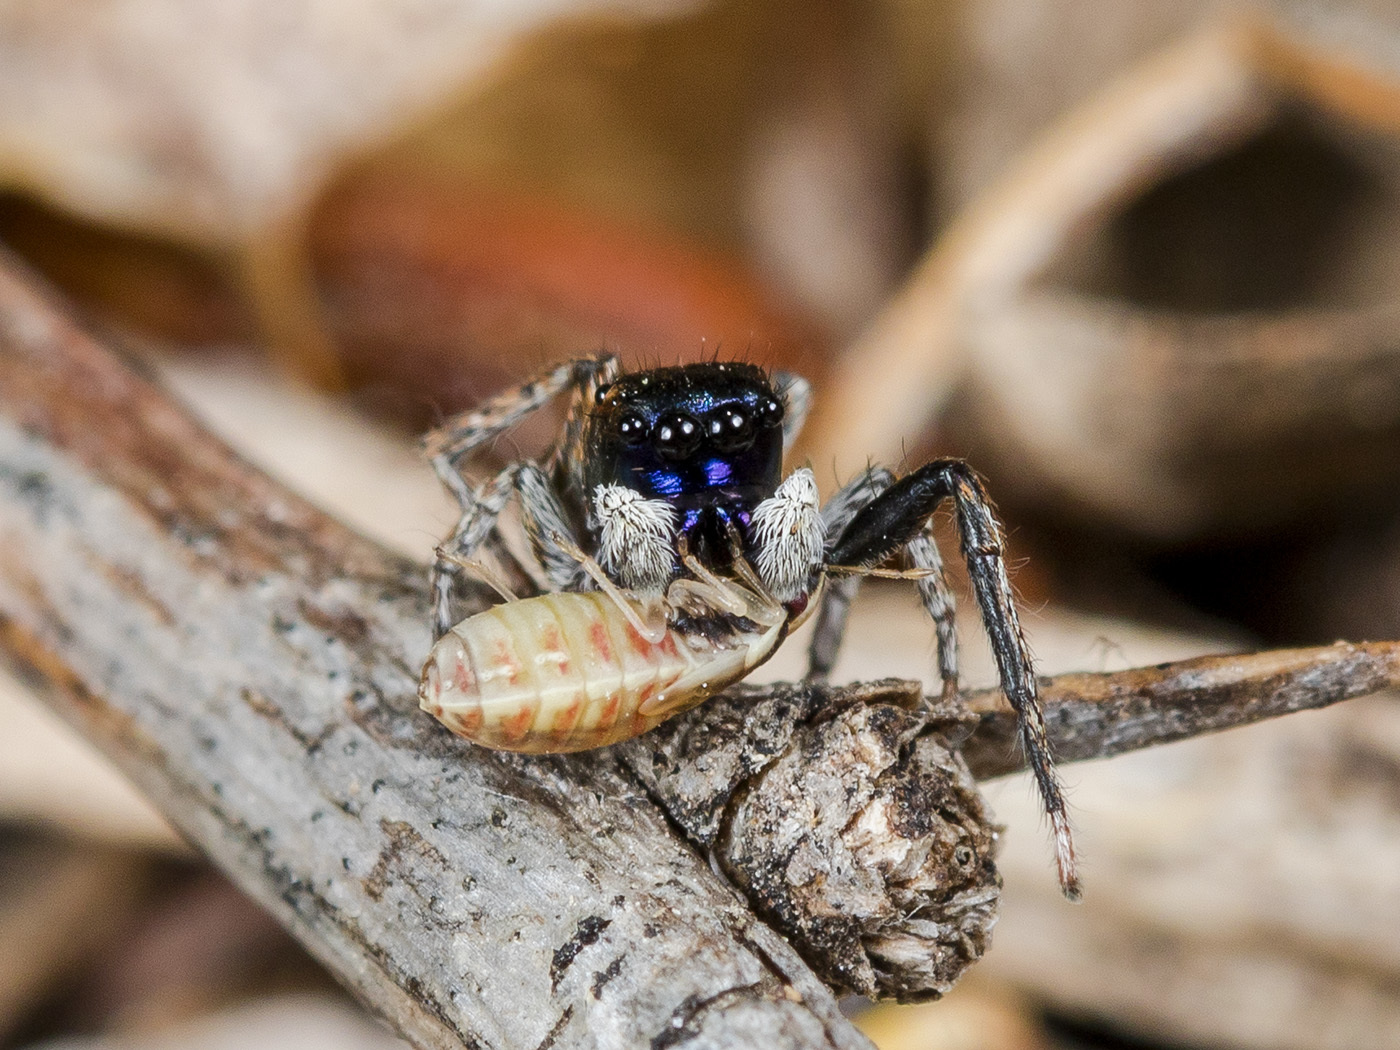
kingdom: Animalia
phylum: Arthropoda
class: Arachnida
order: Araneae
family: Salticidae
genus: Attulus
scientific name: Attulus mirandus
